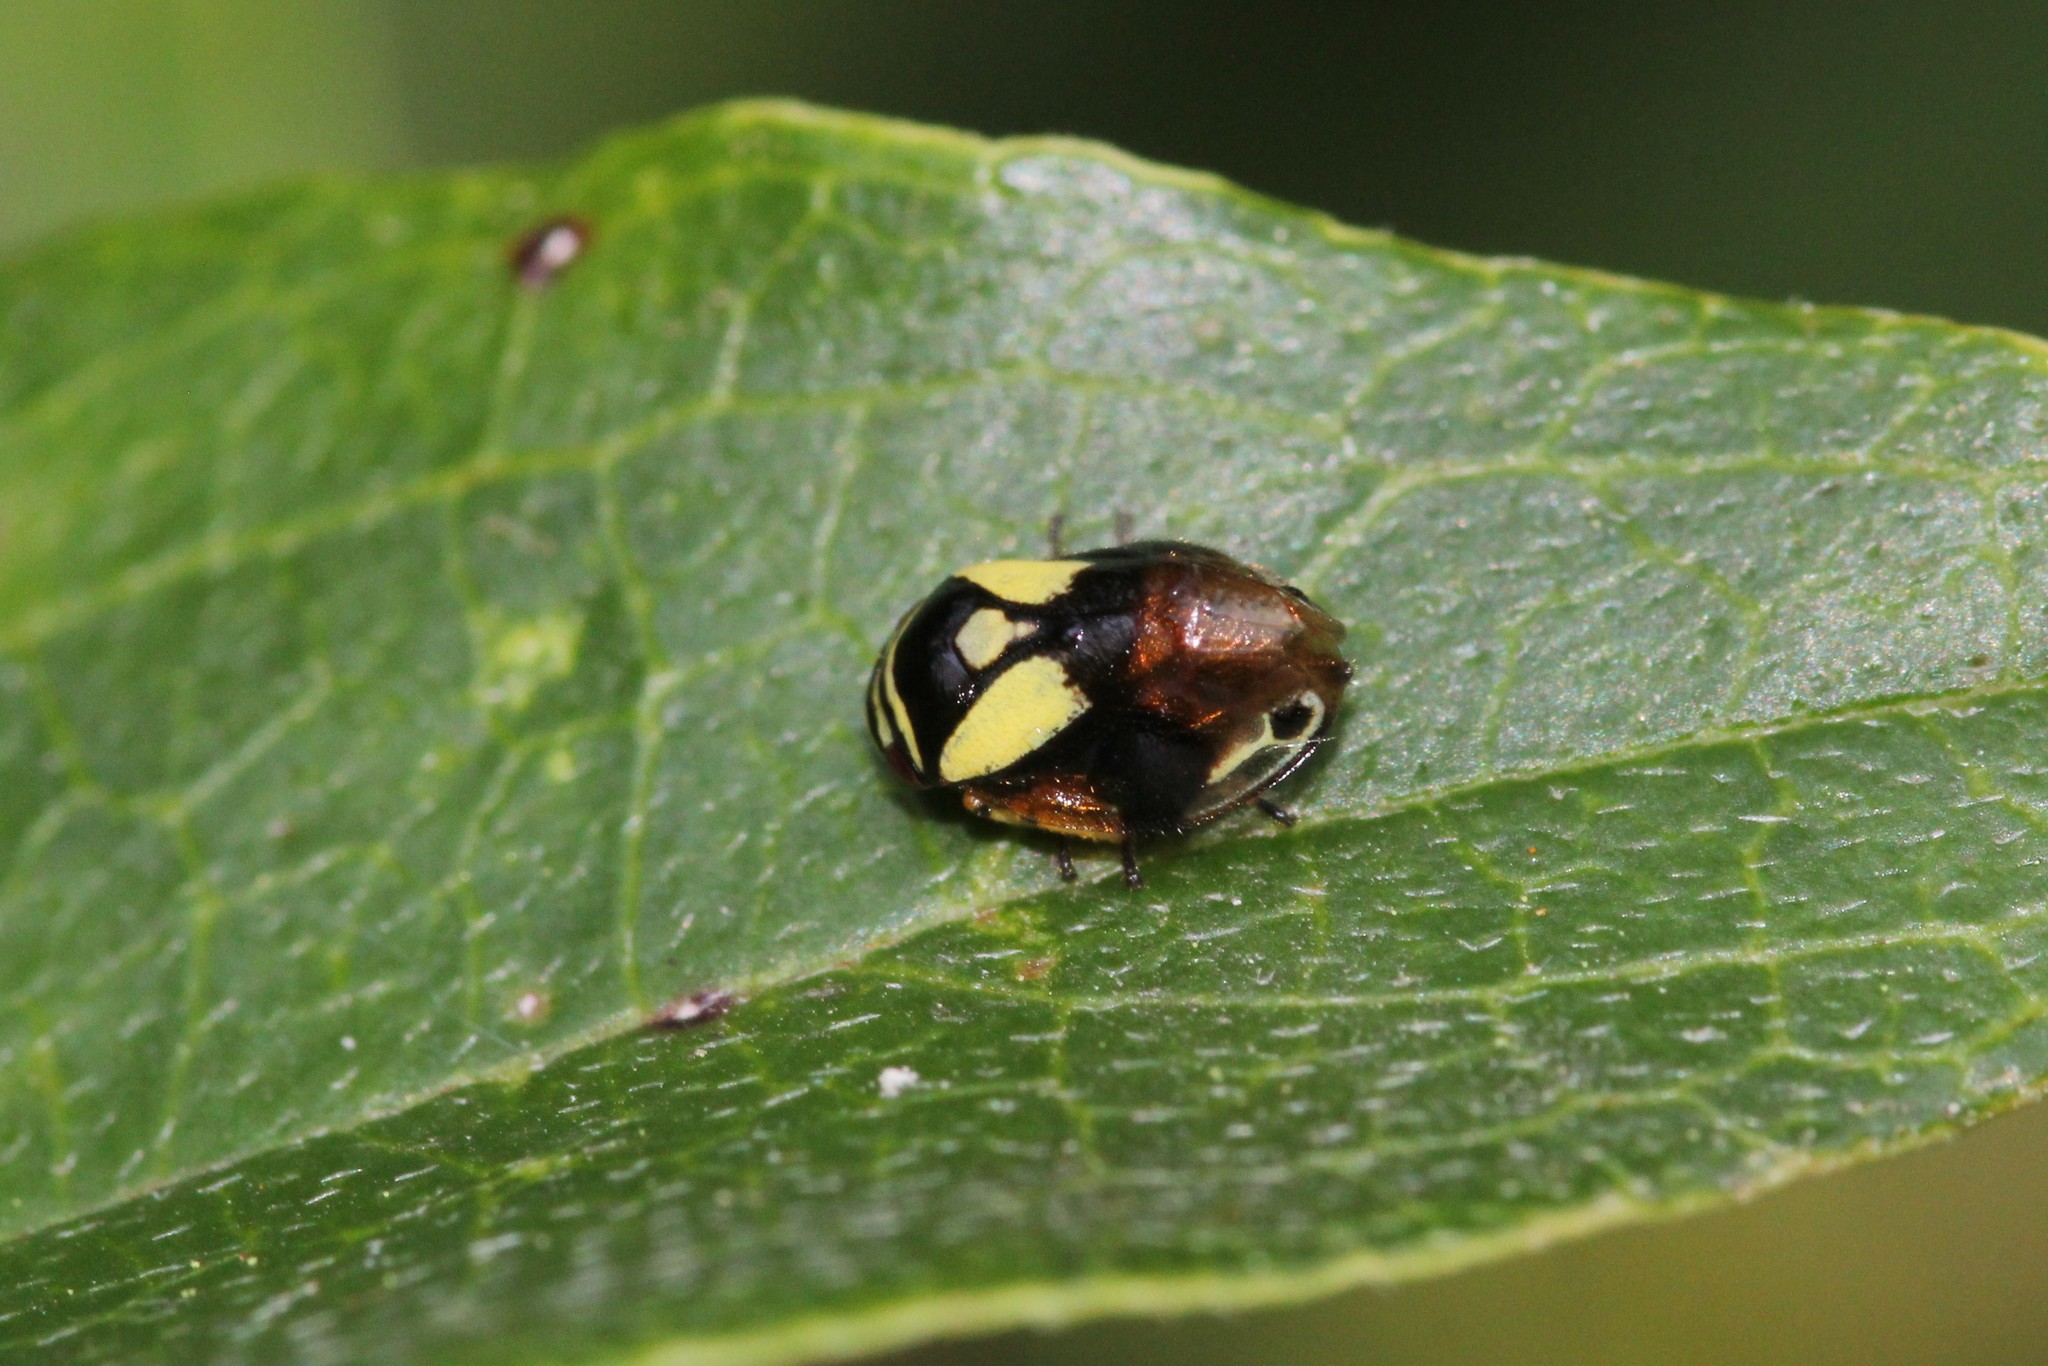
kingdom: Animalia
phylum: Arthropoda
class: Insecta
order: Hemiptera
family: Clastopteridae
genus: Clastoptera
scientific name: Clastoptera proteus
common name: Dogwood spittlebug
